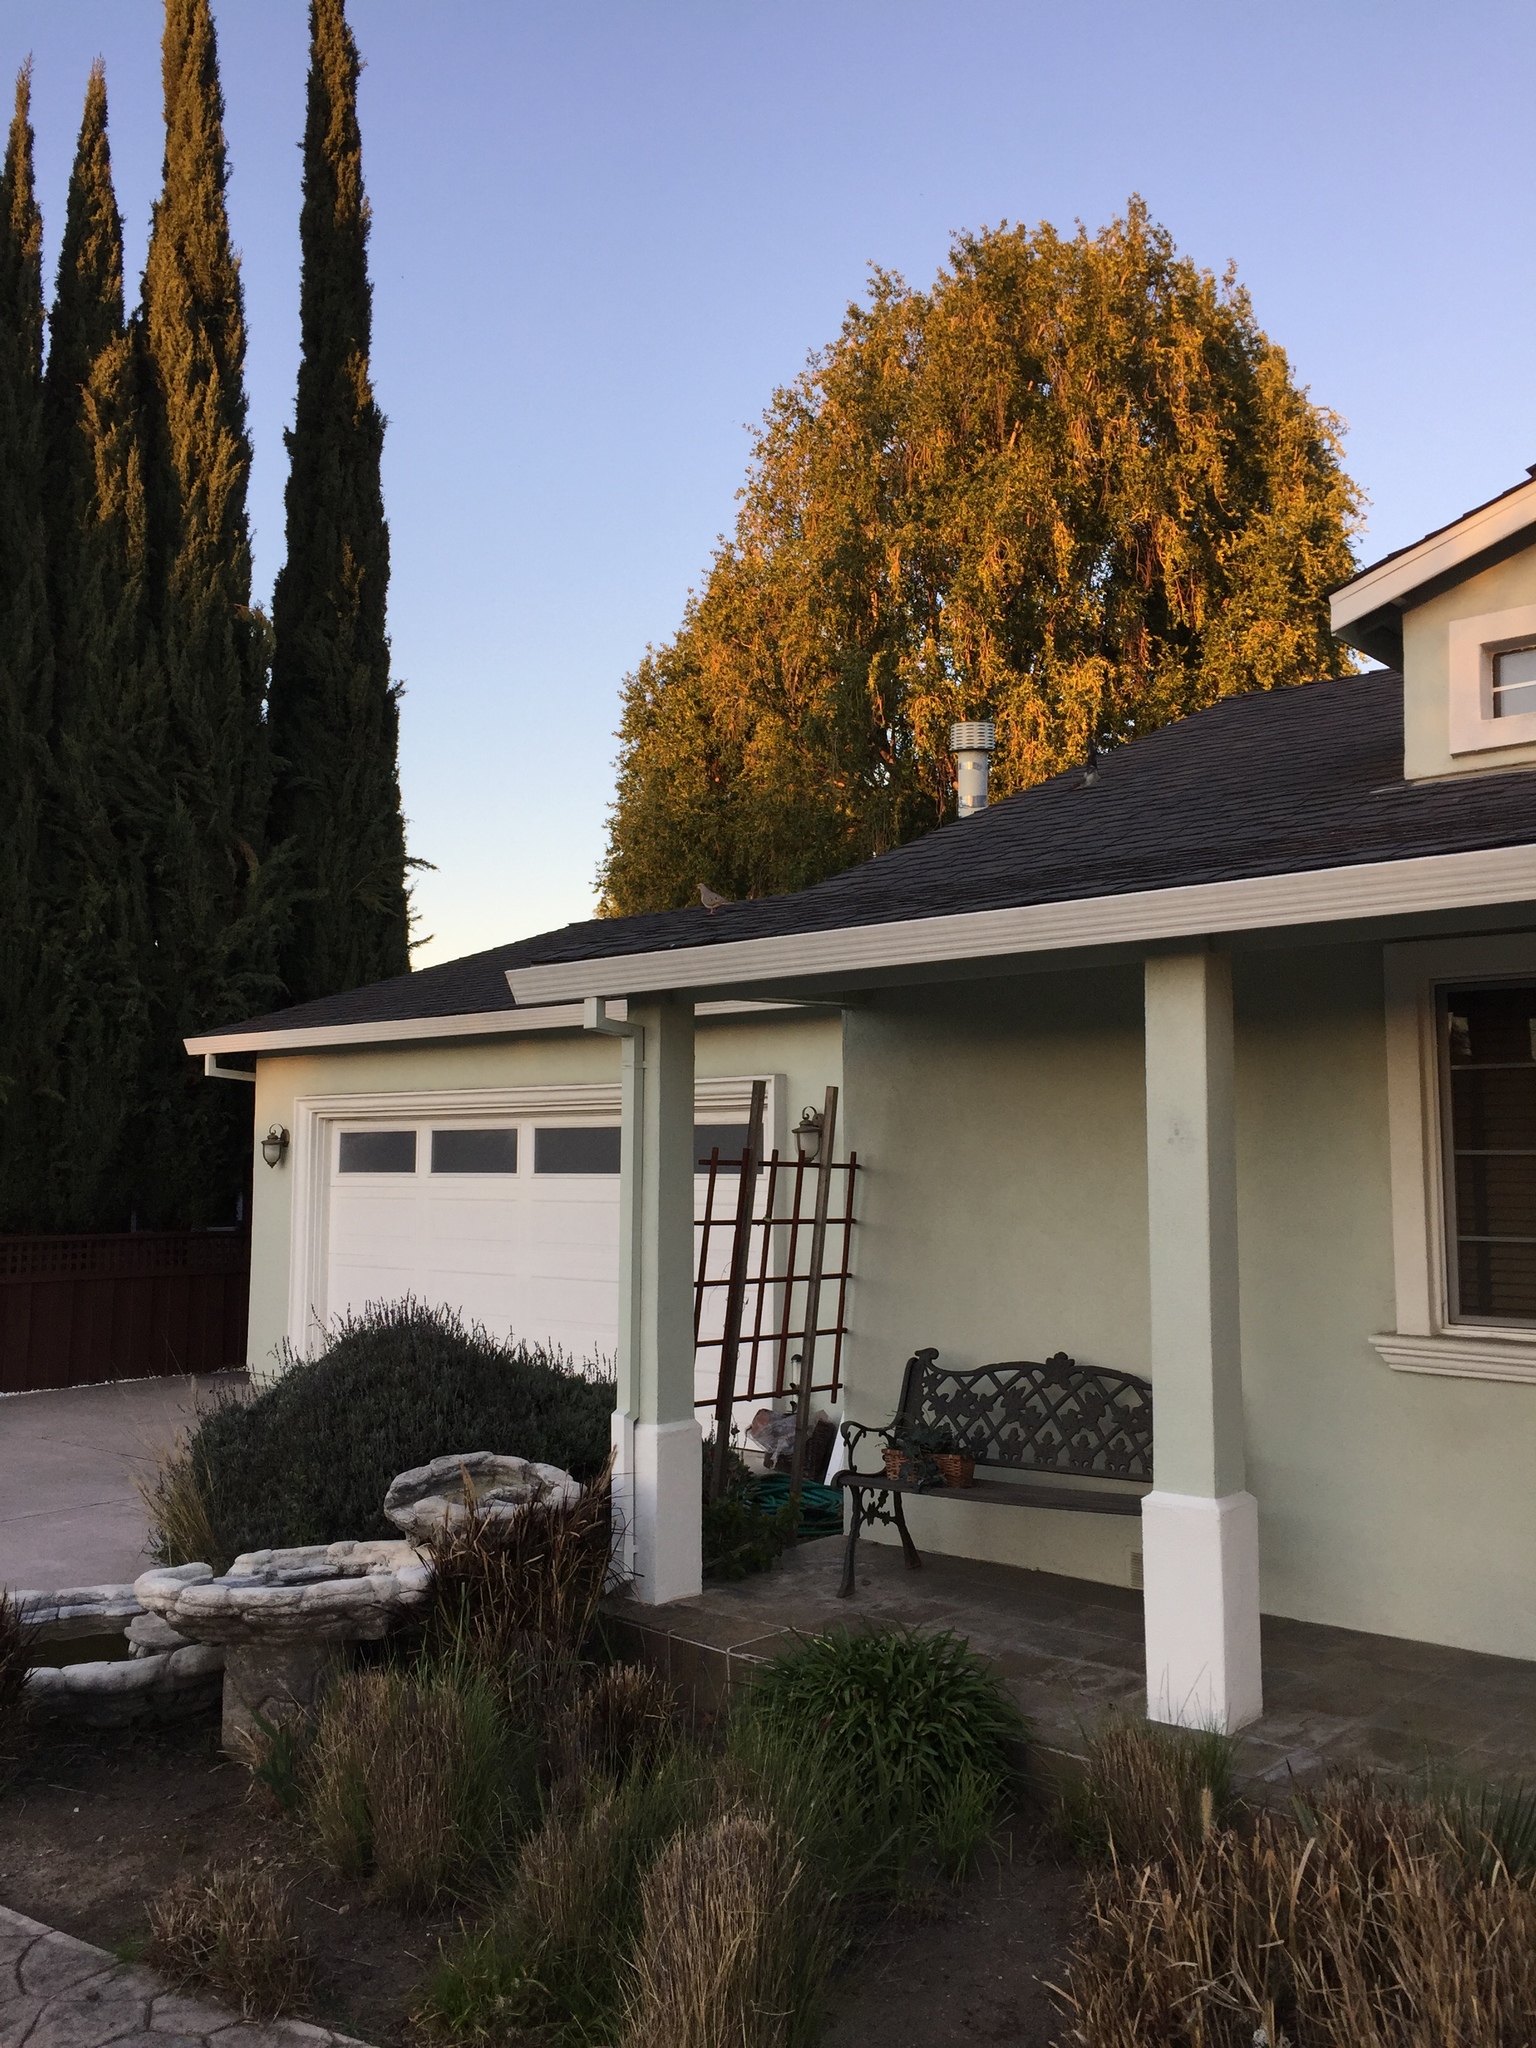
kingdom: Animalia
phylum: Chordata
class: Aves
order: Columbiformes
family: Columbidae
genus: Zenaida
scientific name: Zenaida macroura
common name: Mourning dove
